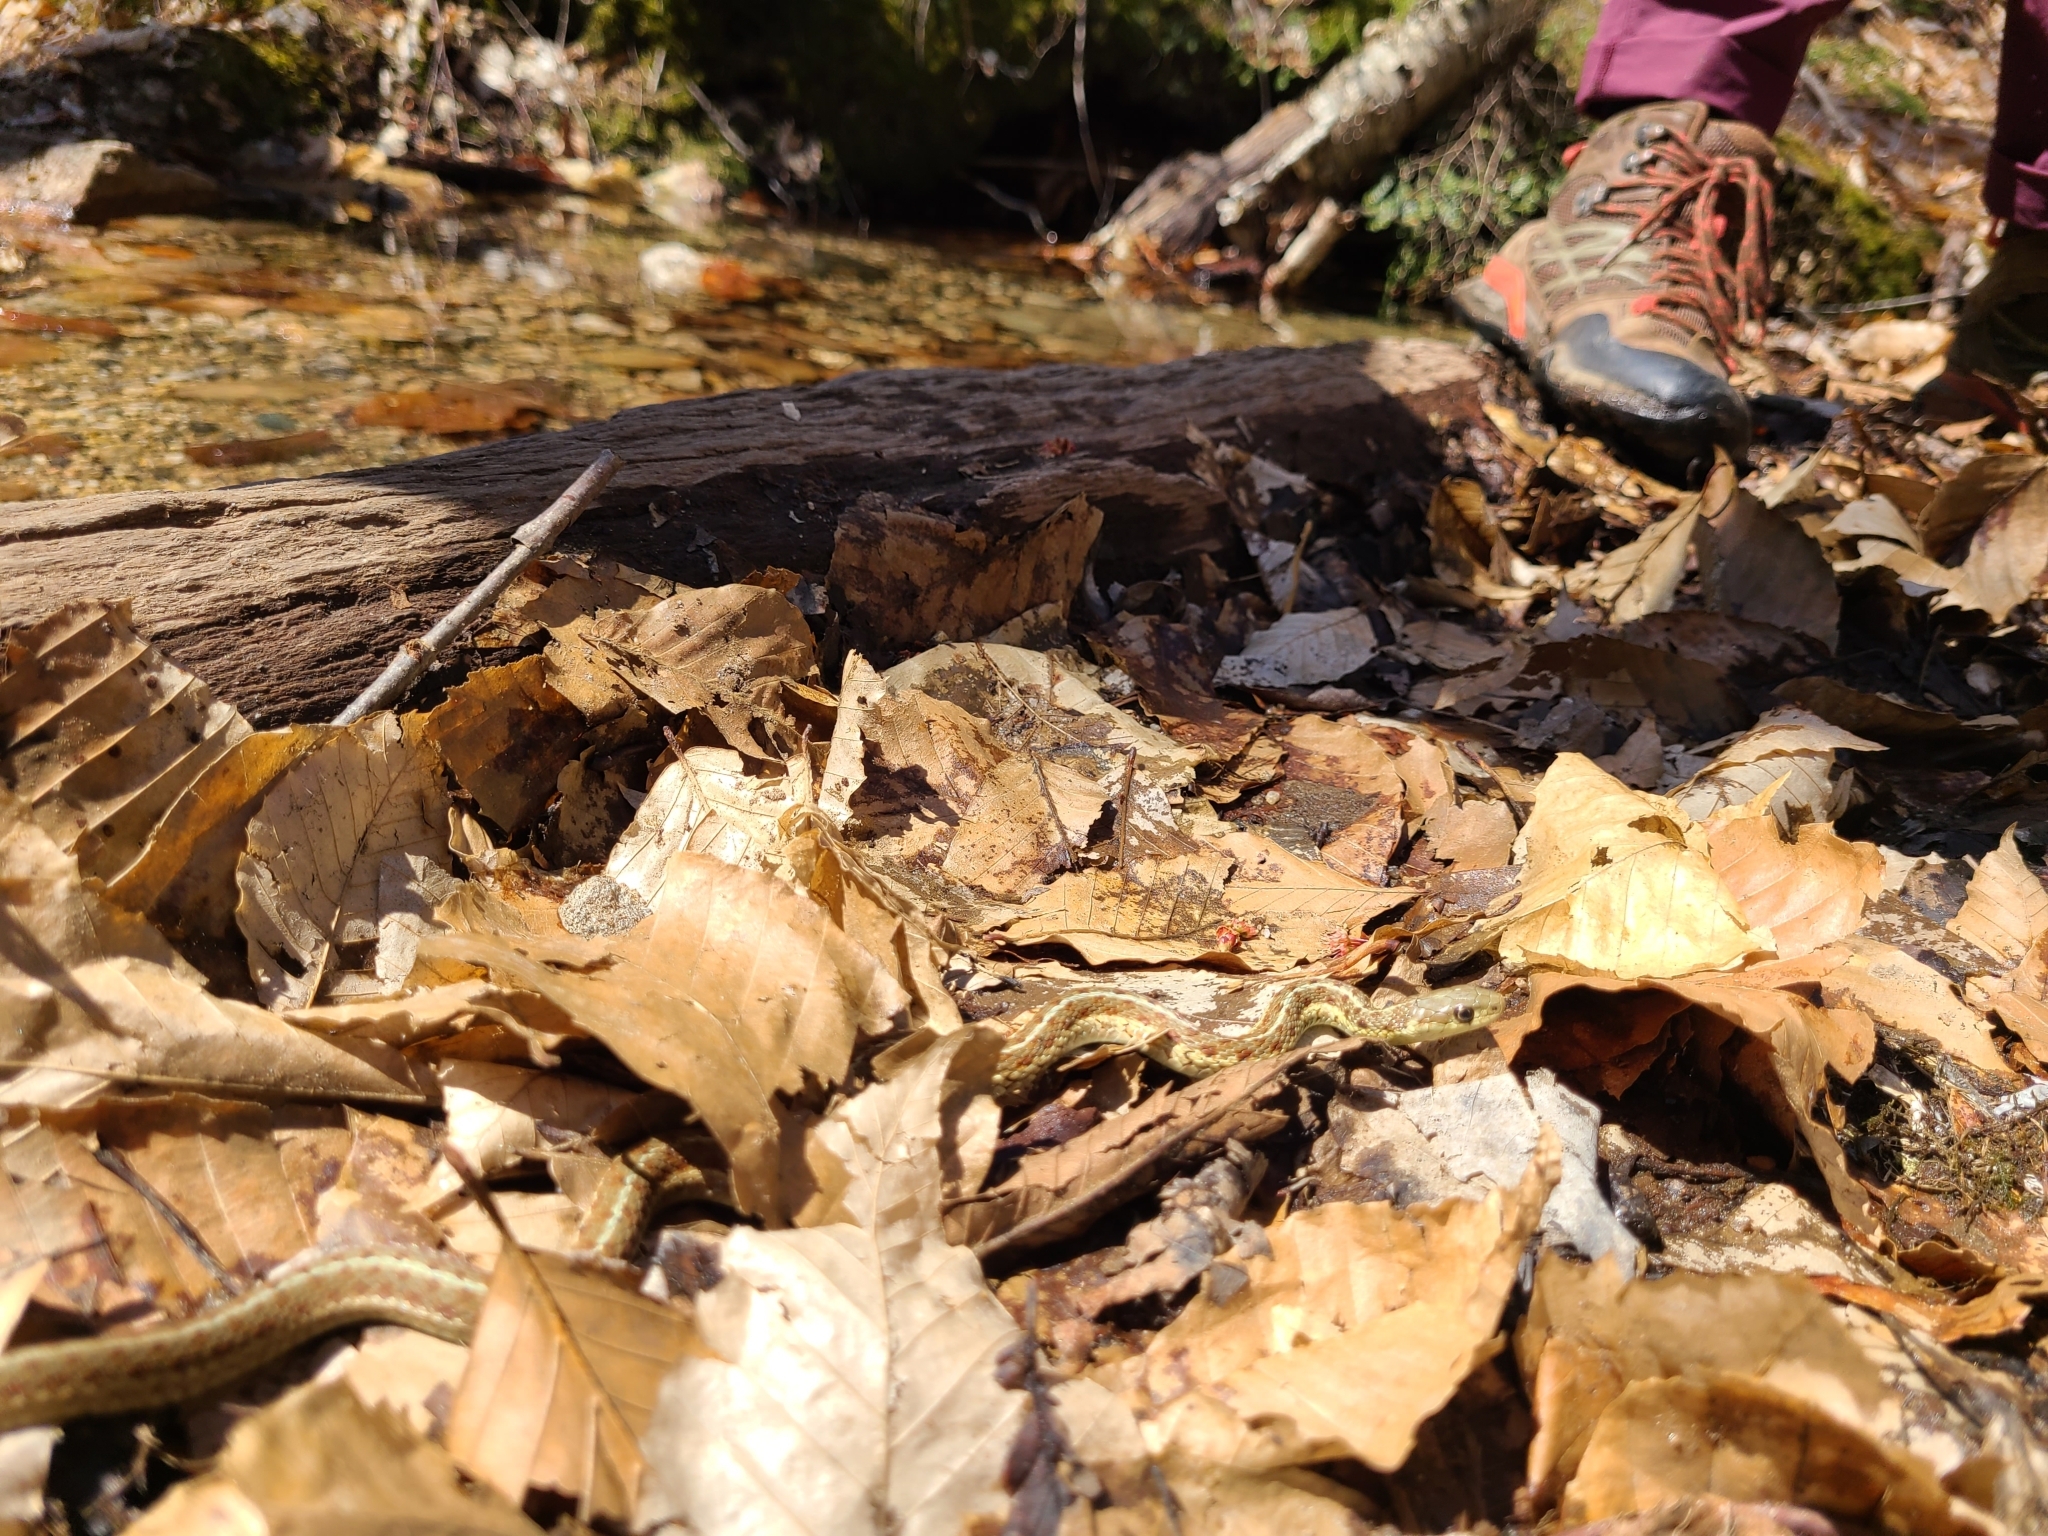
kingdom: Animalia
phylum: Chordata
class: Squamata
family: Colubridae
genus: Thamnophis
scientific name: Thamnophis sirtalis
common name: Common garter snake
